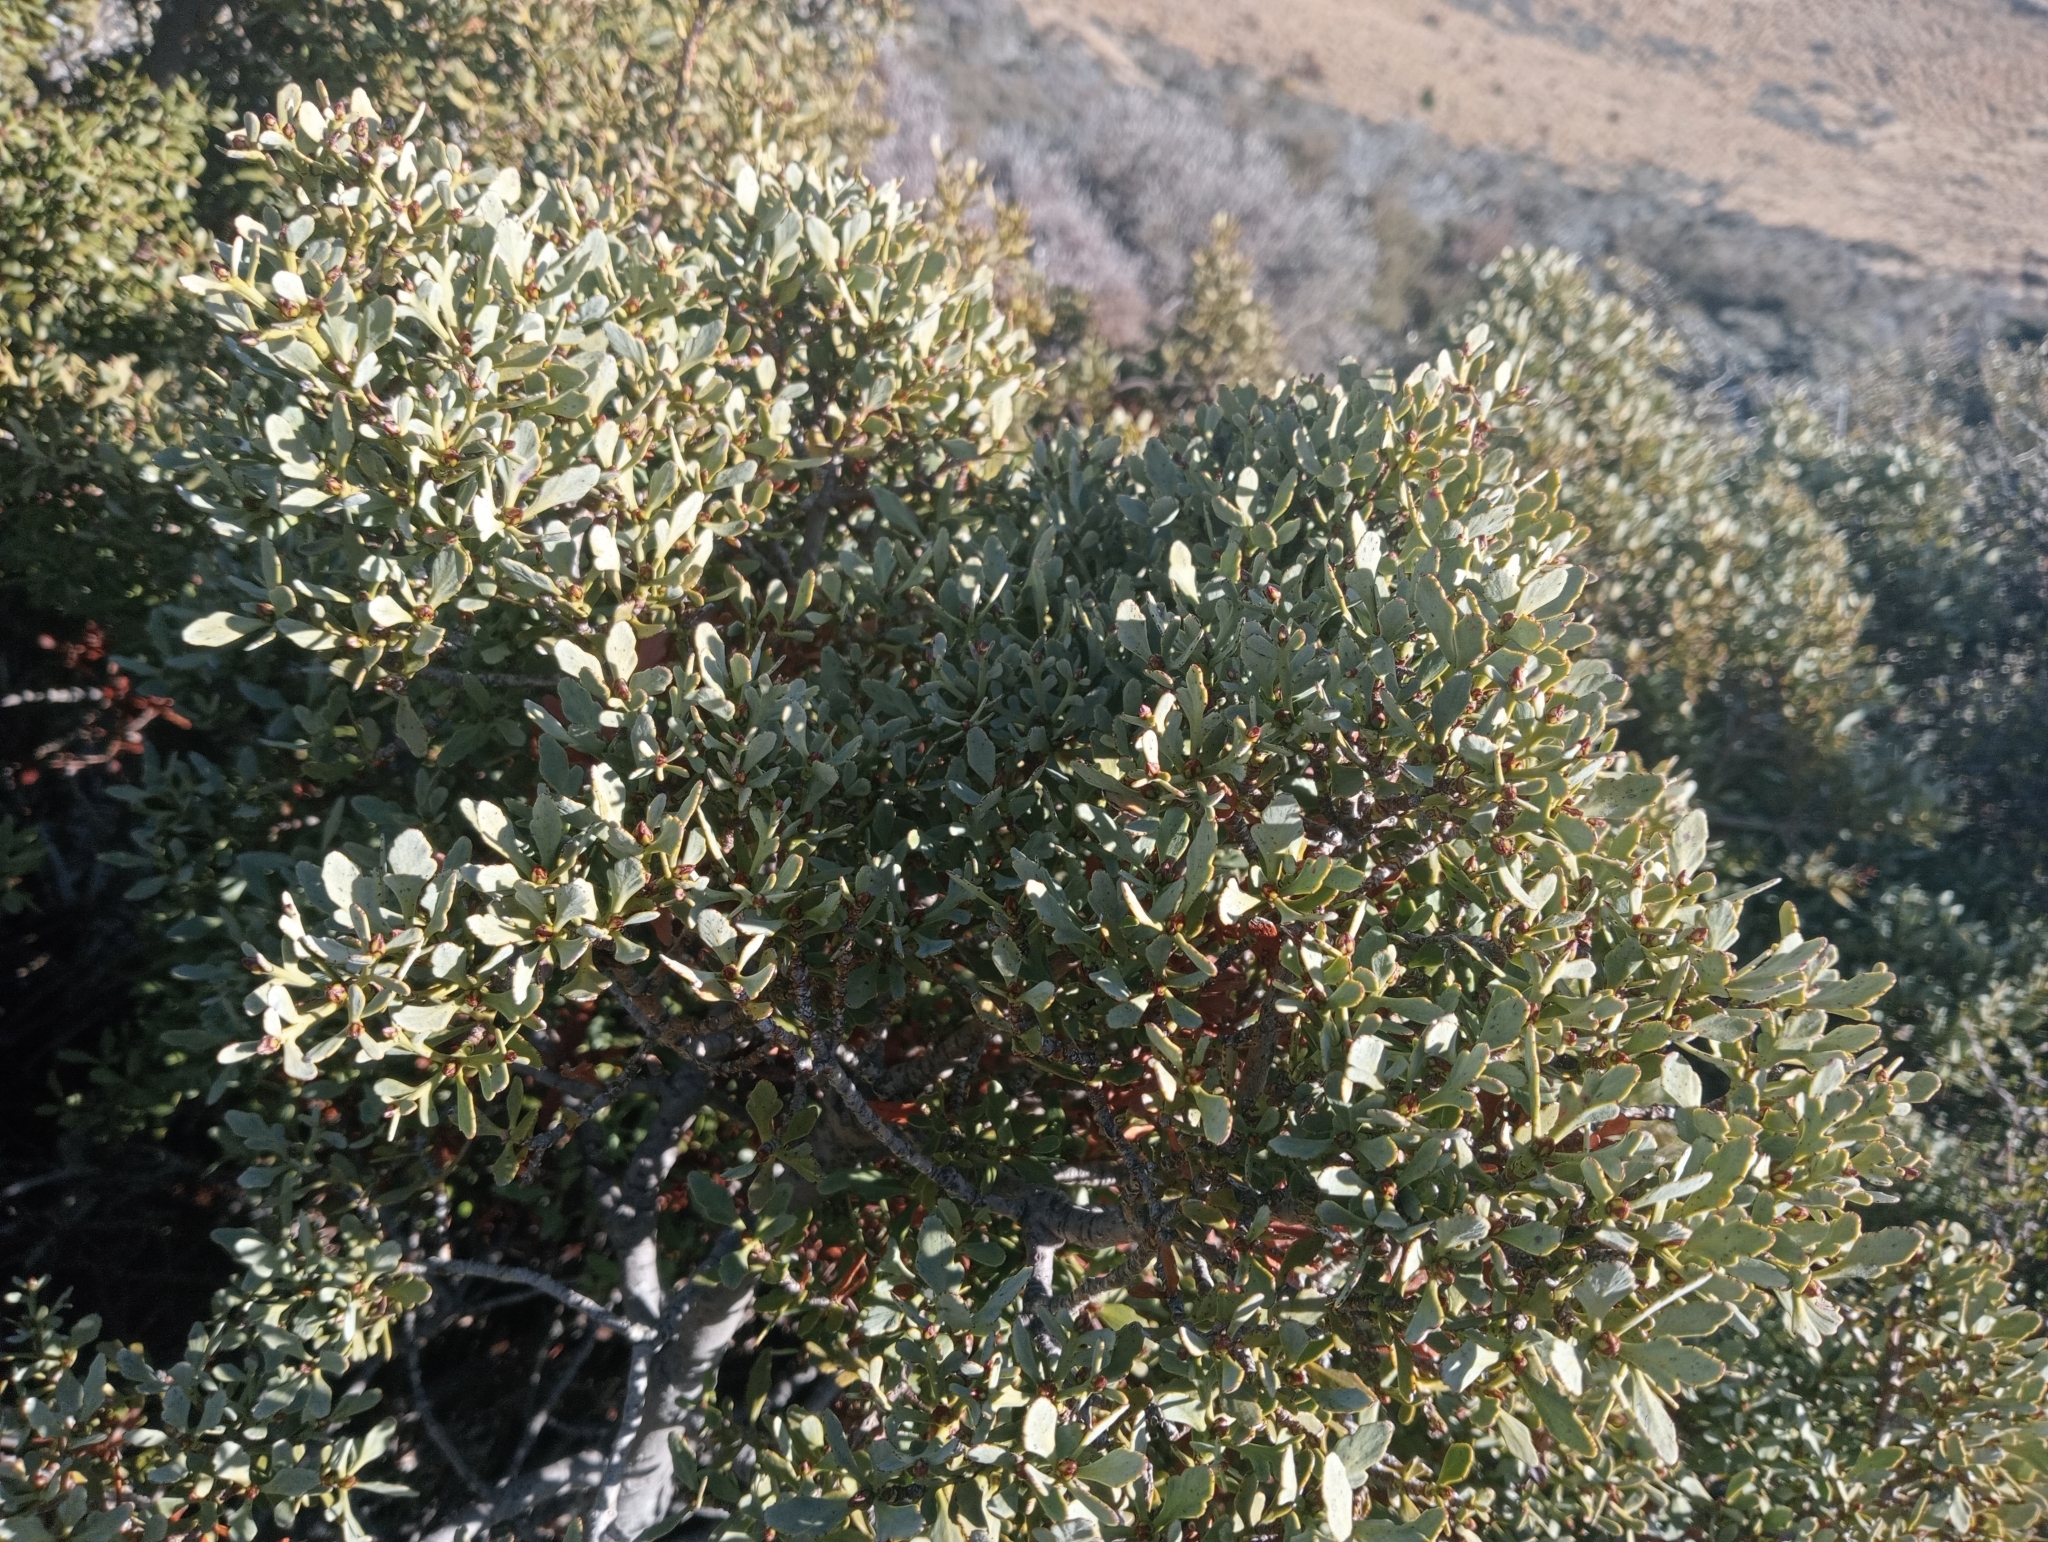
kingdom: Plantae
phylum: Tracheophyta
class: Pinopsida
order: Pinales
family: Phyllocladaceae
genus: Phyllocladus
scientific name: Phyllocladus trichomanoides
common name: Celery pine
